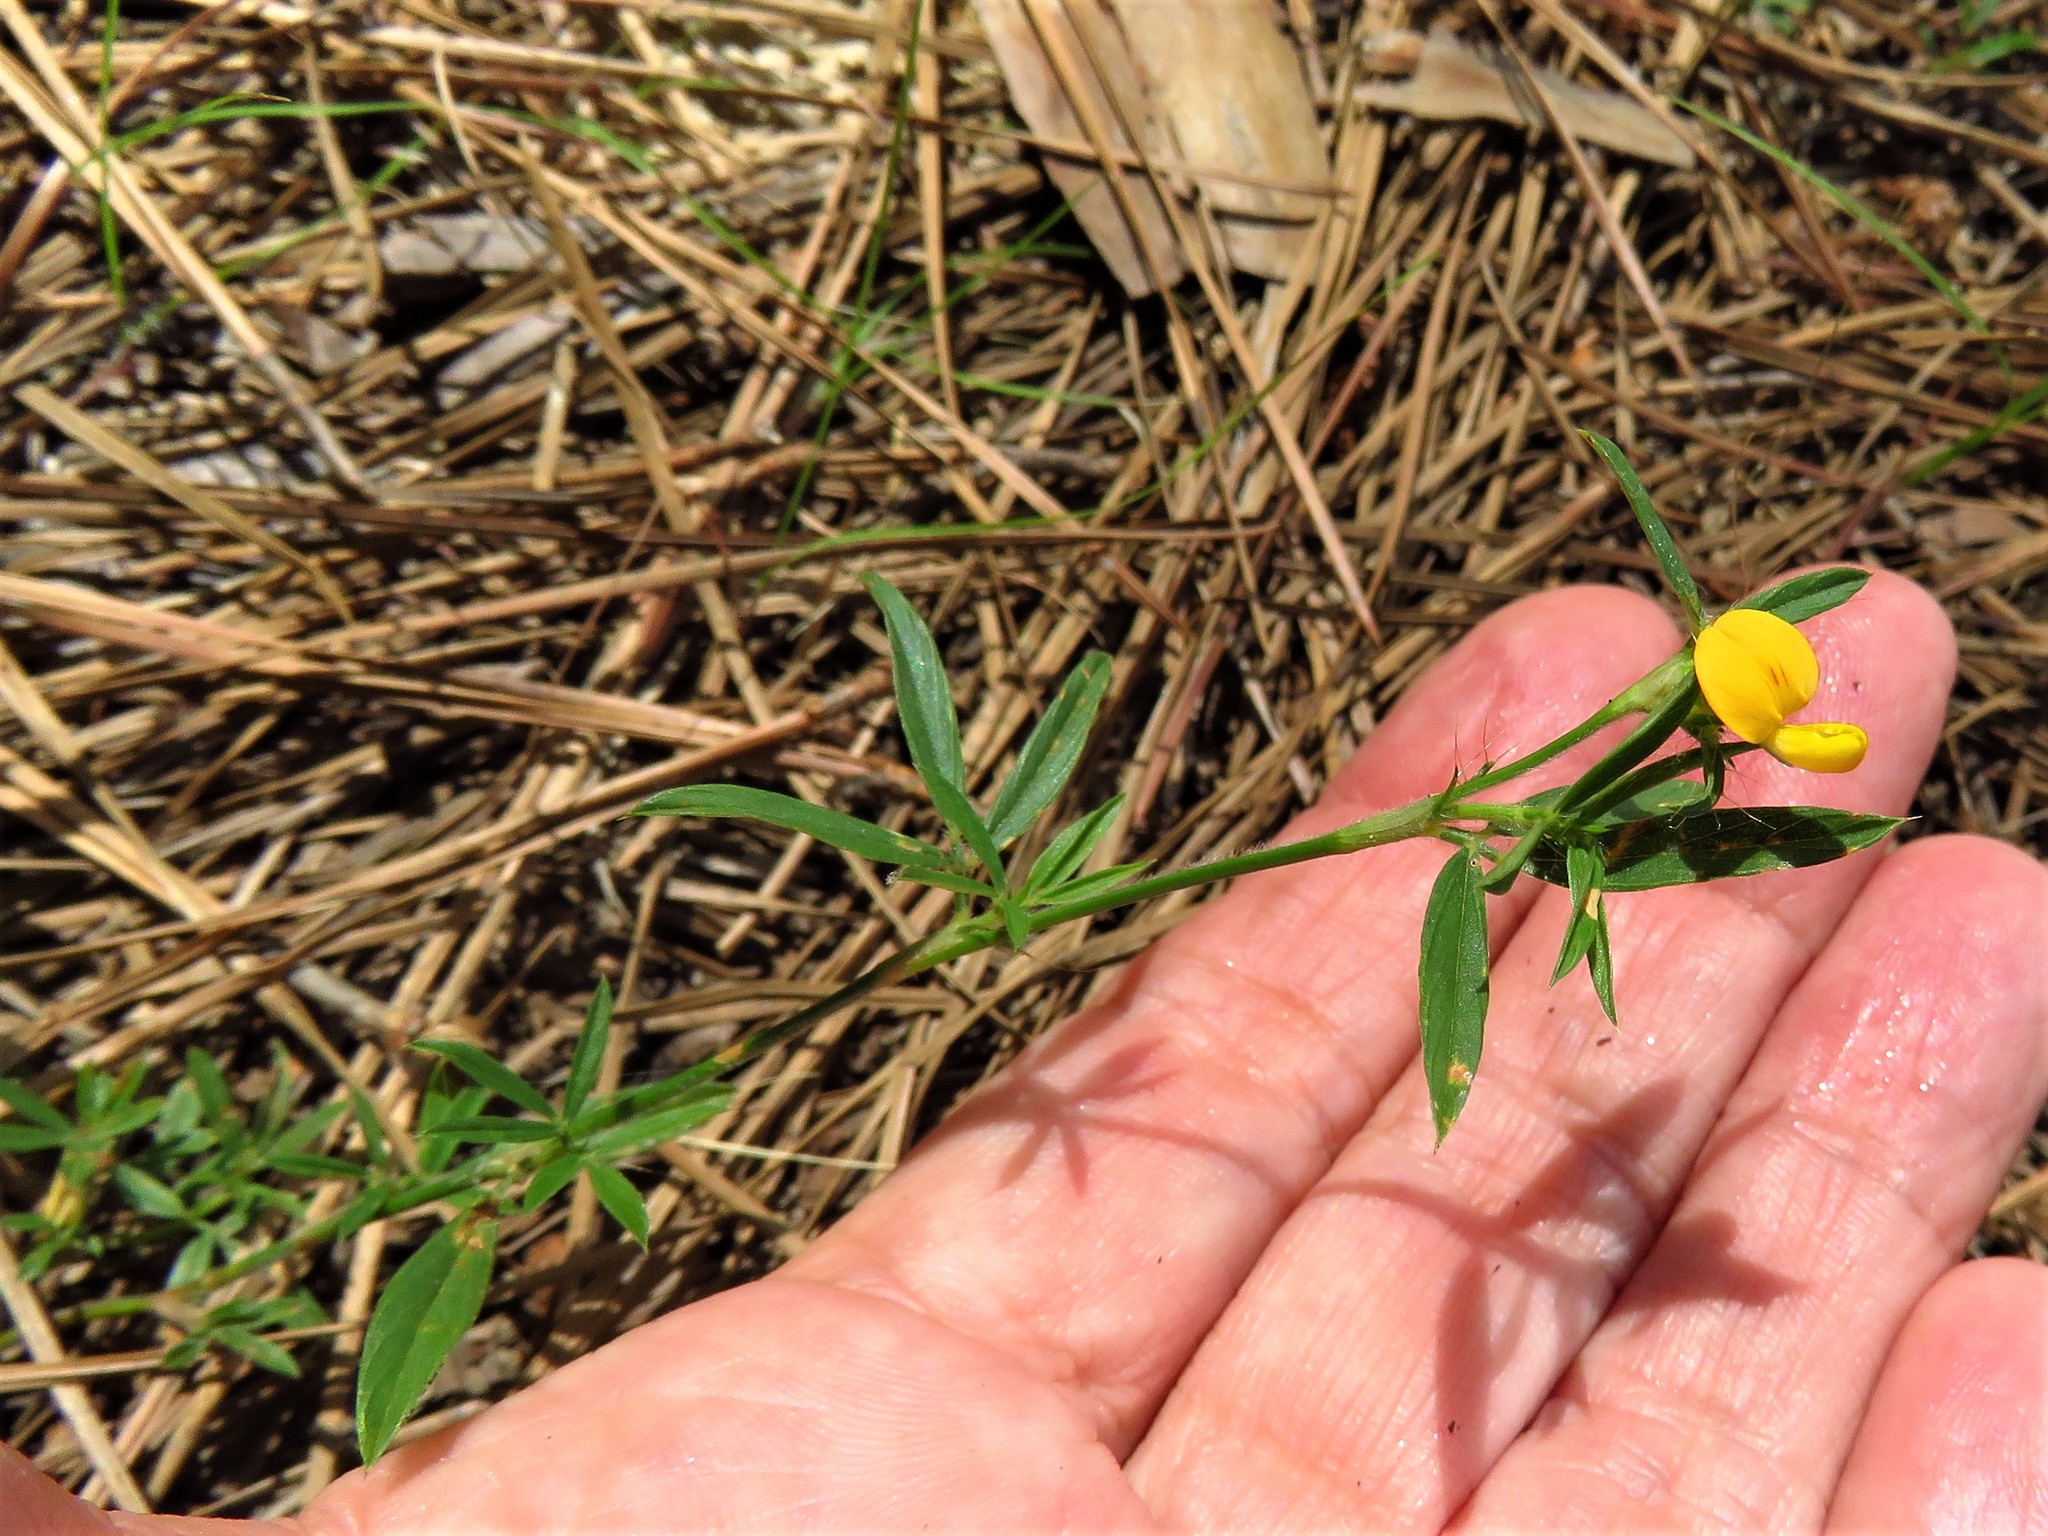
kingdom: Plantae
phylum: Tracheophyta
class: Magnoliopsida
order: Fabales
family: Fabaceae
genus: Stylosanthes
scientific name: Stylosanthes biflora
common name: Two-flower pencil-flower
